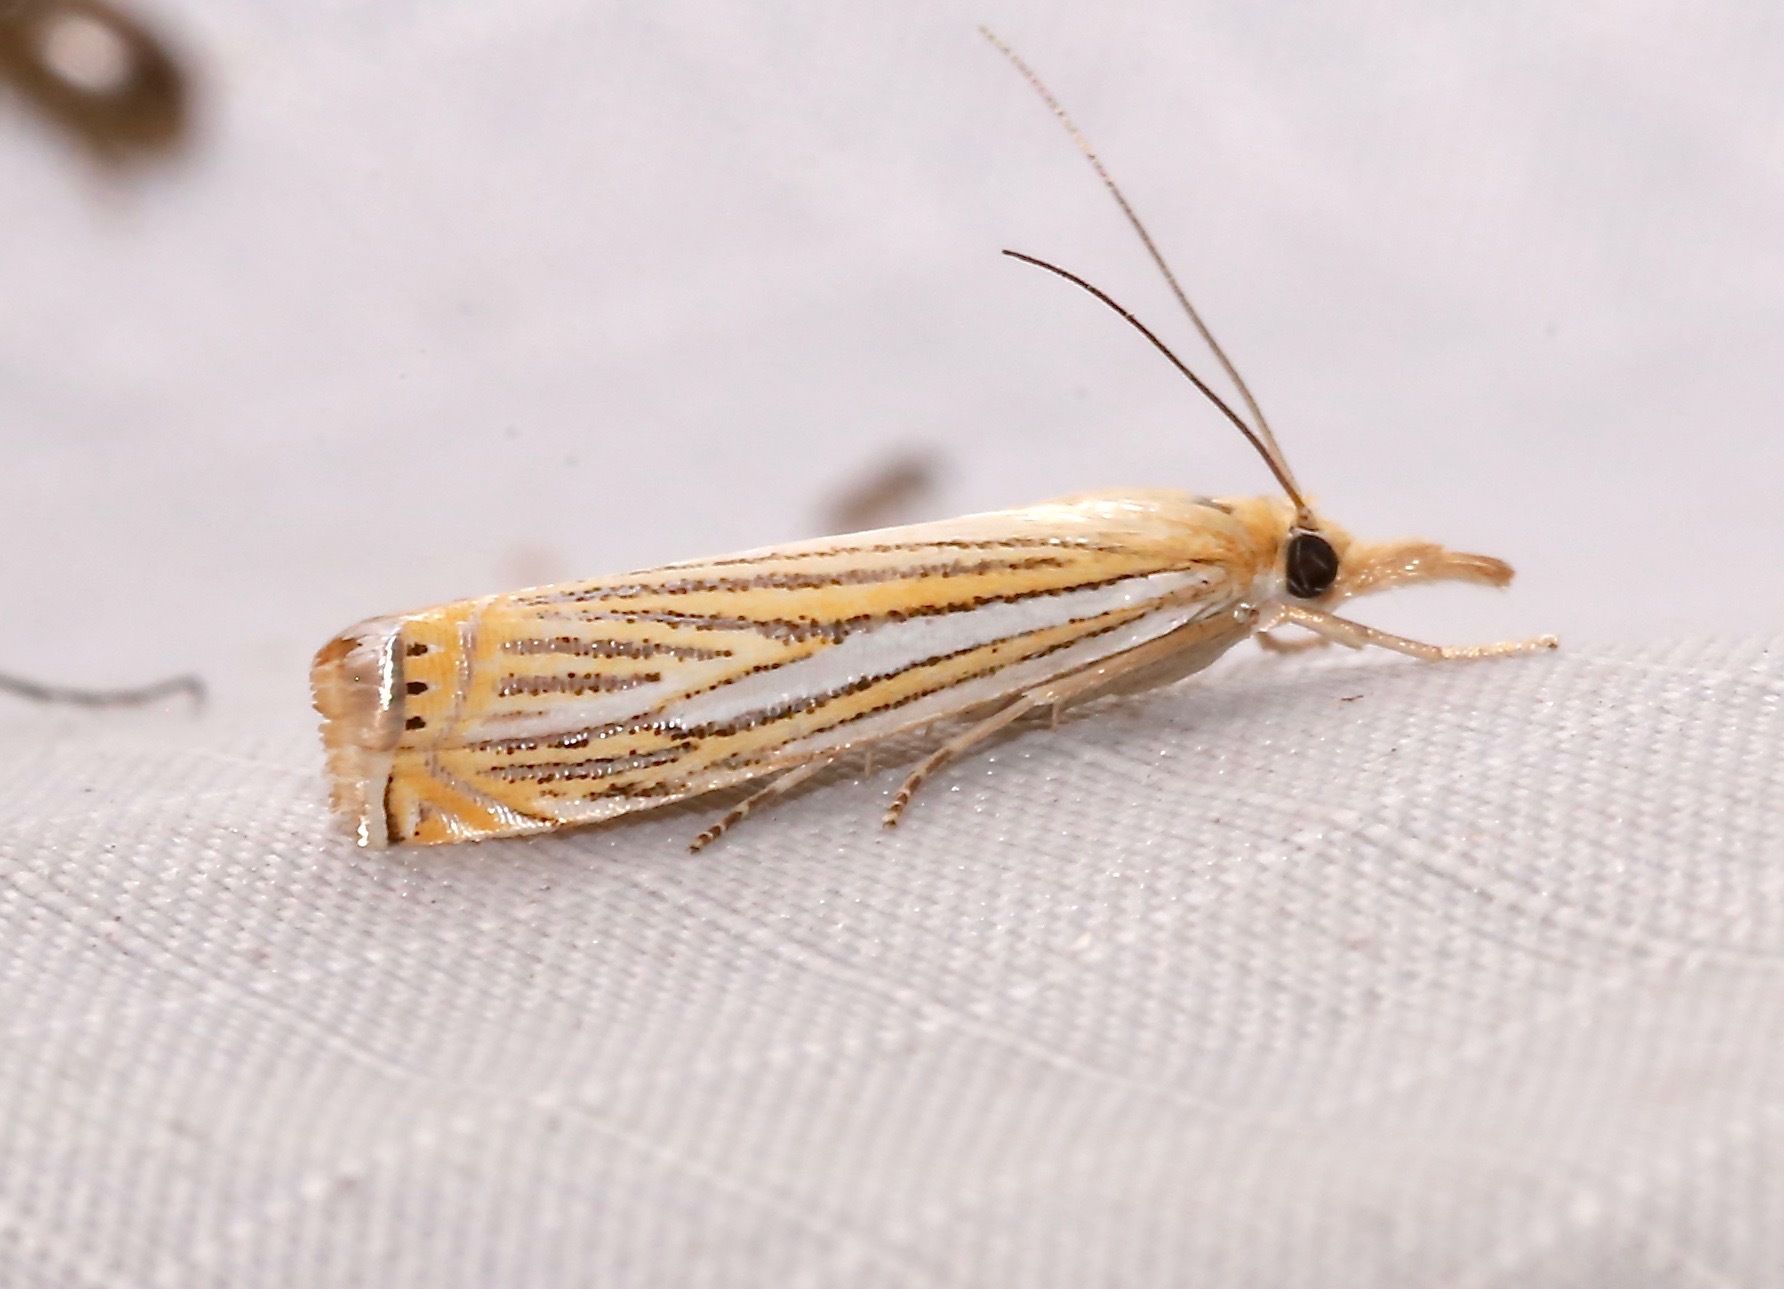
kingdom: Animalia
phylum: Arthropoda
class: Insecta
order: Lepidoptera
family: Crambidae
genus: Crambus
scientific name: Crambus multilinellus
